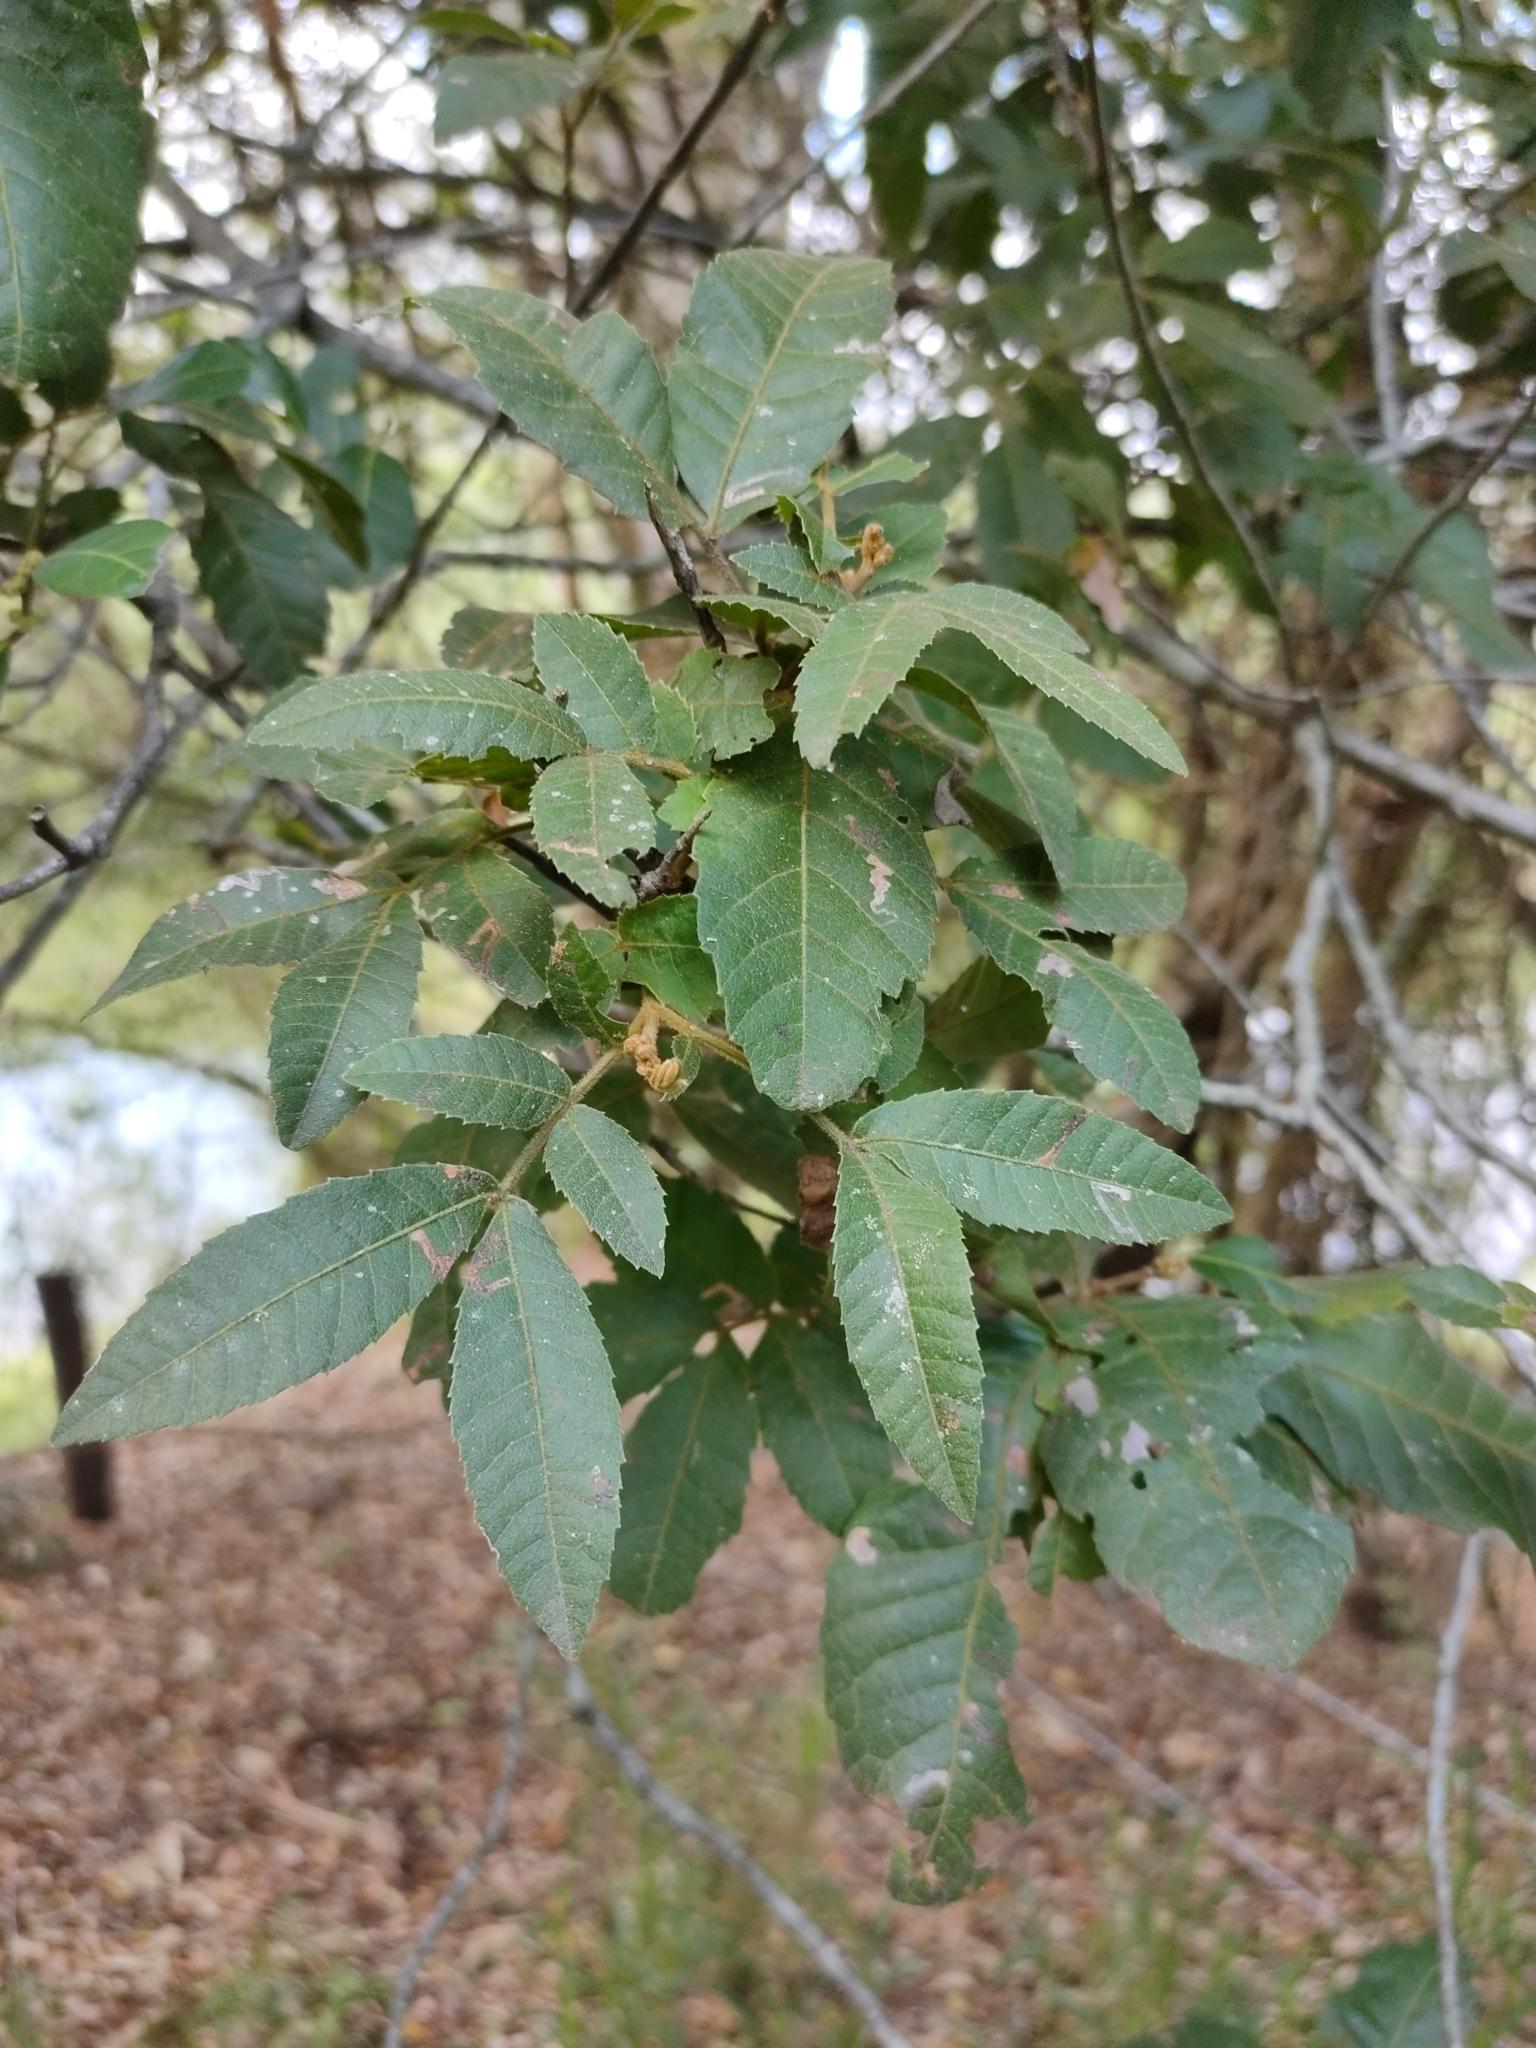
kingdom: Plantae
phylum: Tracheophyta
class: Magnoliopsida
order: Sapindales
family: Sapindaceae
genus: Alectryon
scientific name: Alectryon tomentosus
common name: Bed-jacket
